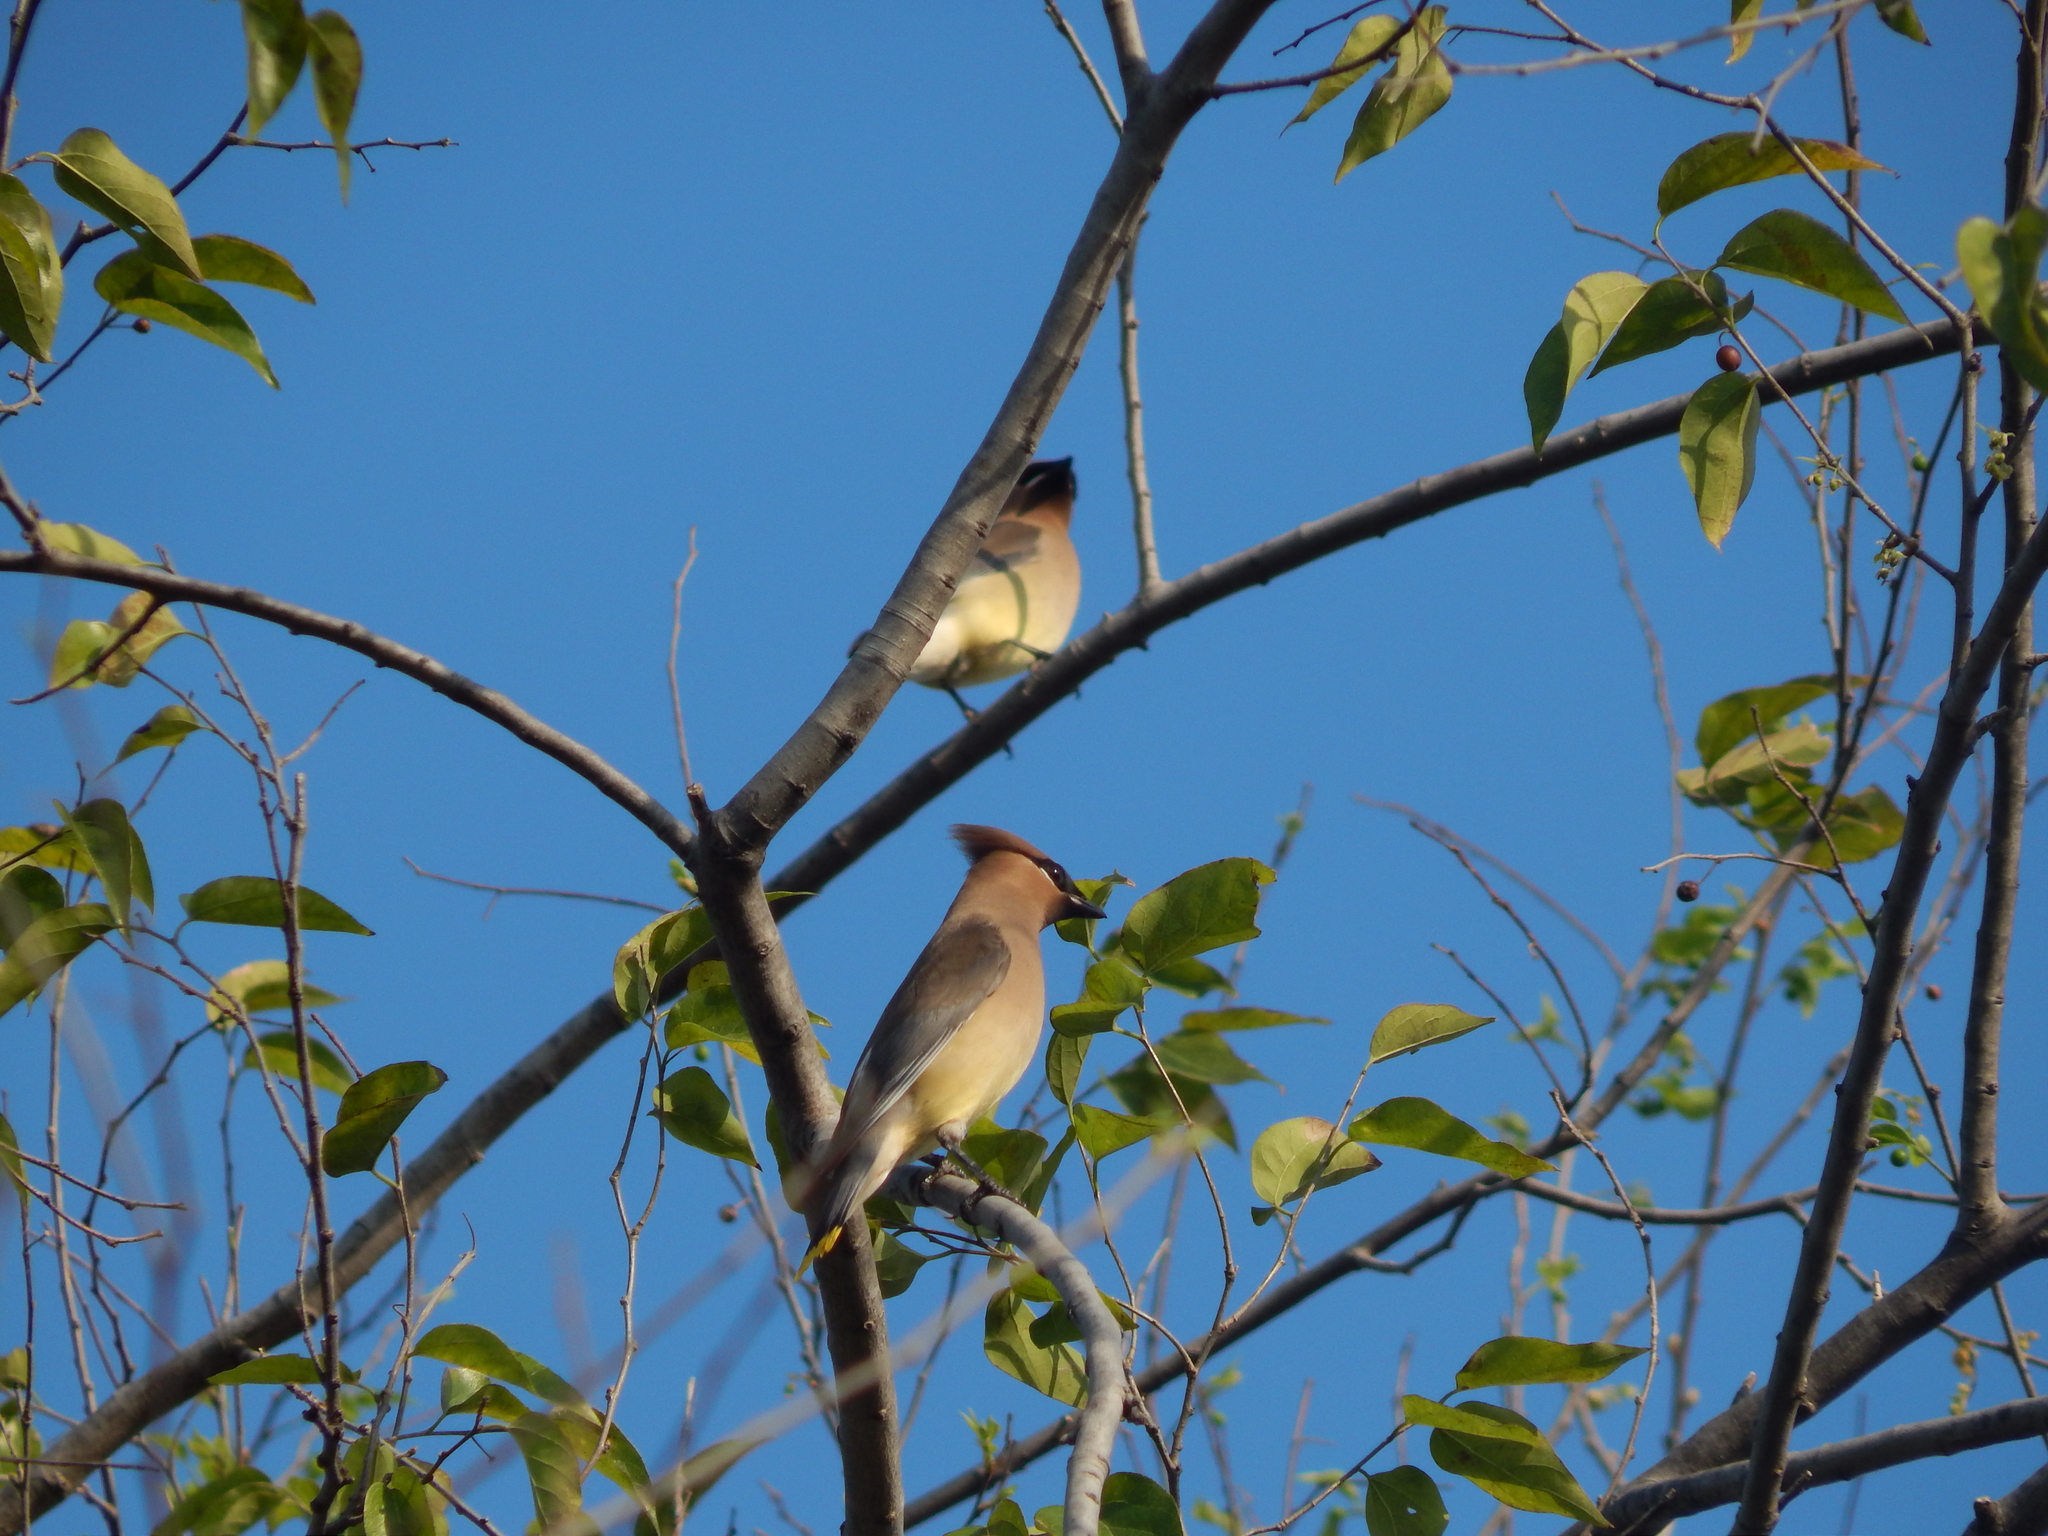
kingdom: Animalia
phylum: Chordata
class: Aves
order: Passeriformes
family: Bombycillidae
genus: Bombycilla
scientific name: Bombycilla cedrorum
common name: Cedar waxwing
